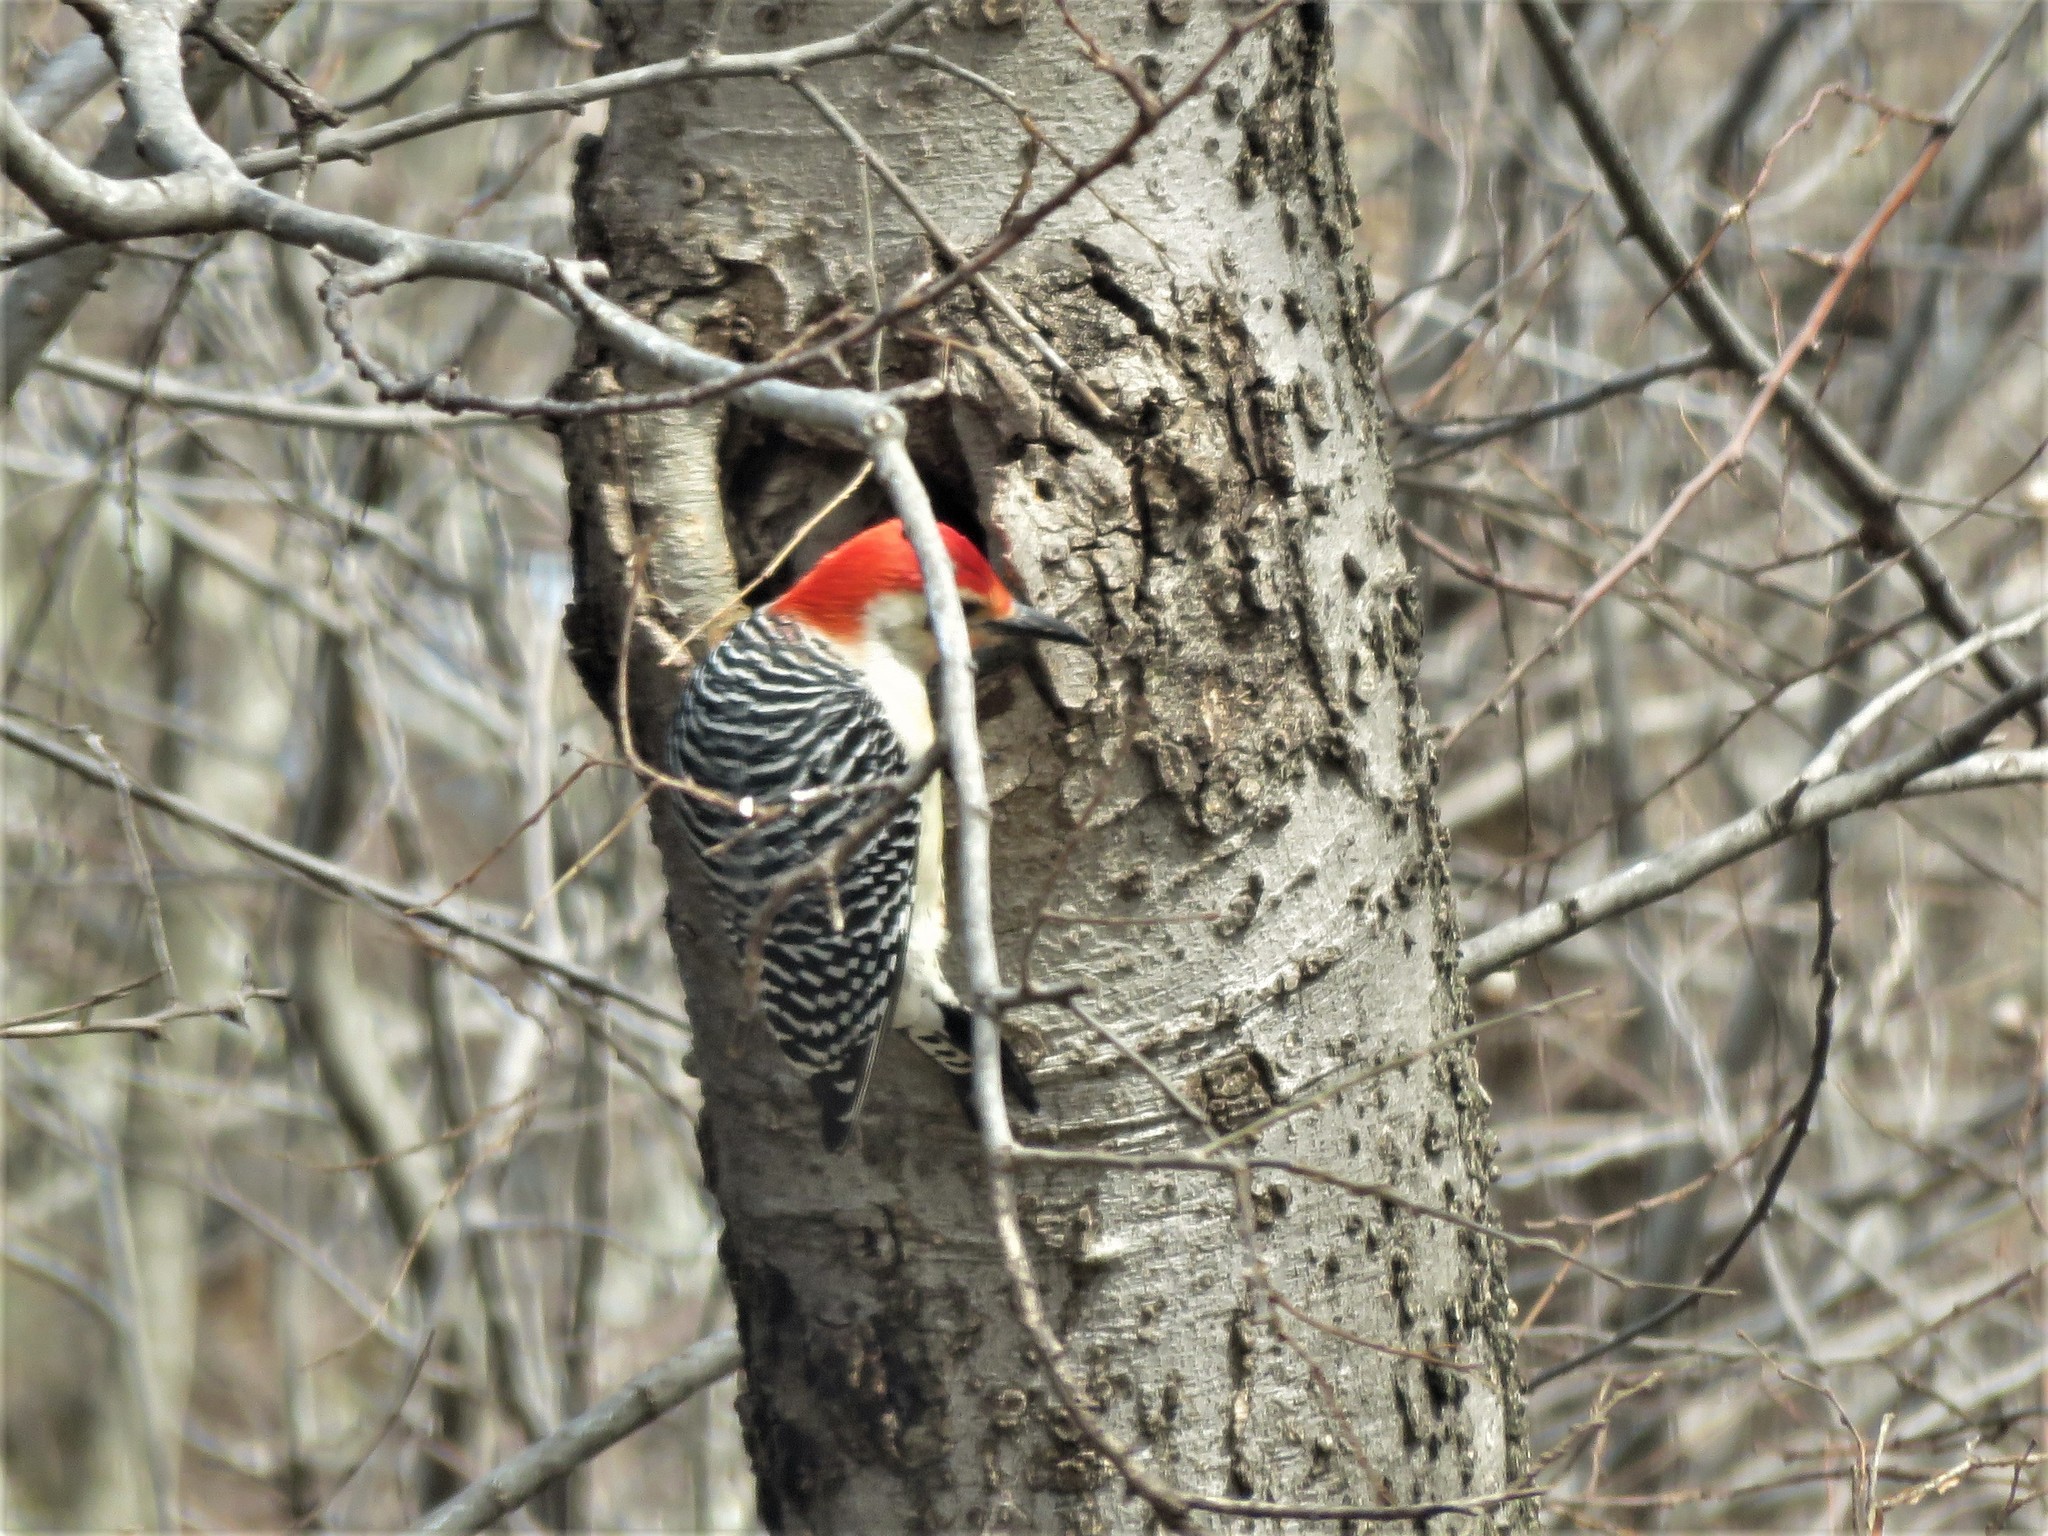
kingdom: Animalia
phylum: Chordata
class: Aves
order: Piciformes
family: Picidae
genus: Melanerpes
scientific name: Melanerpes carolinus
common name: Red-bellied woodpecker
